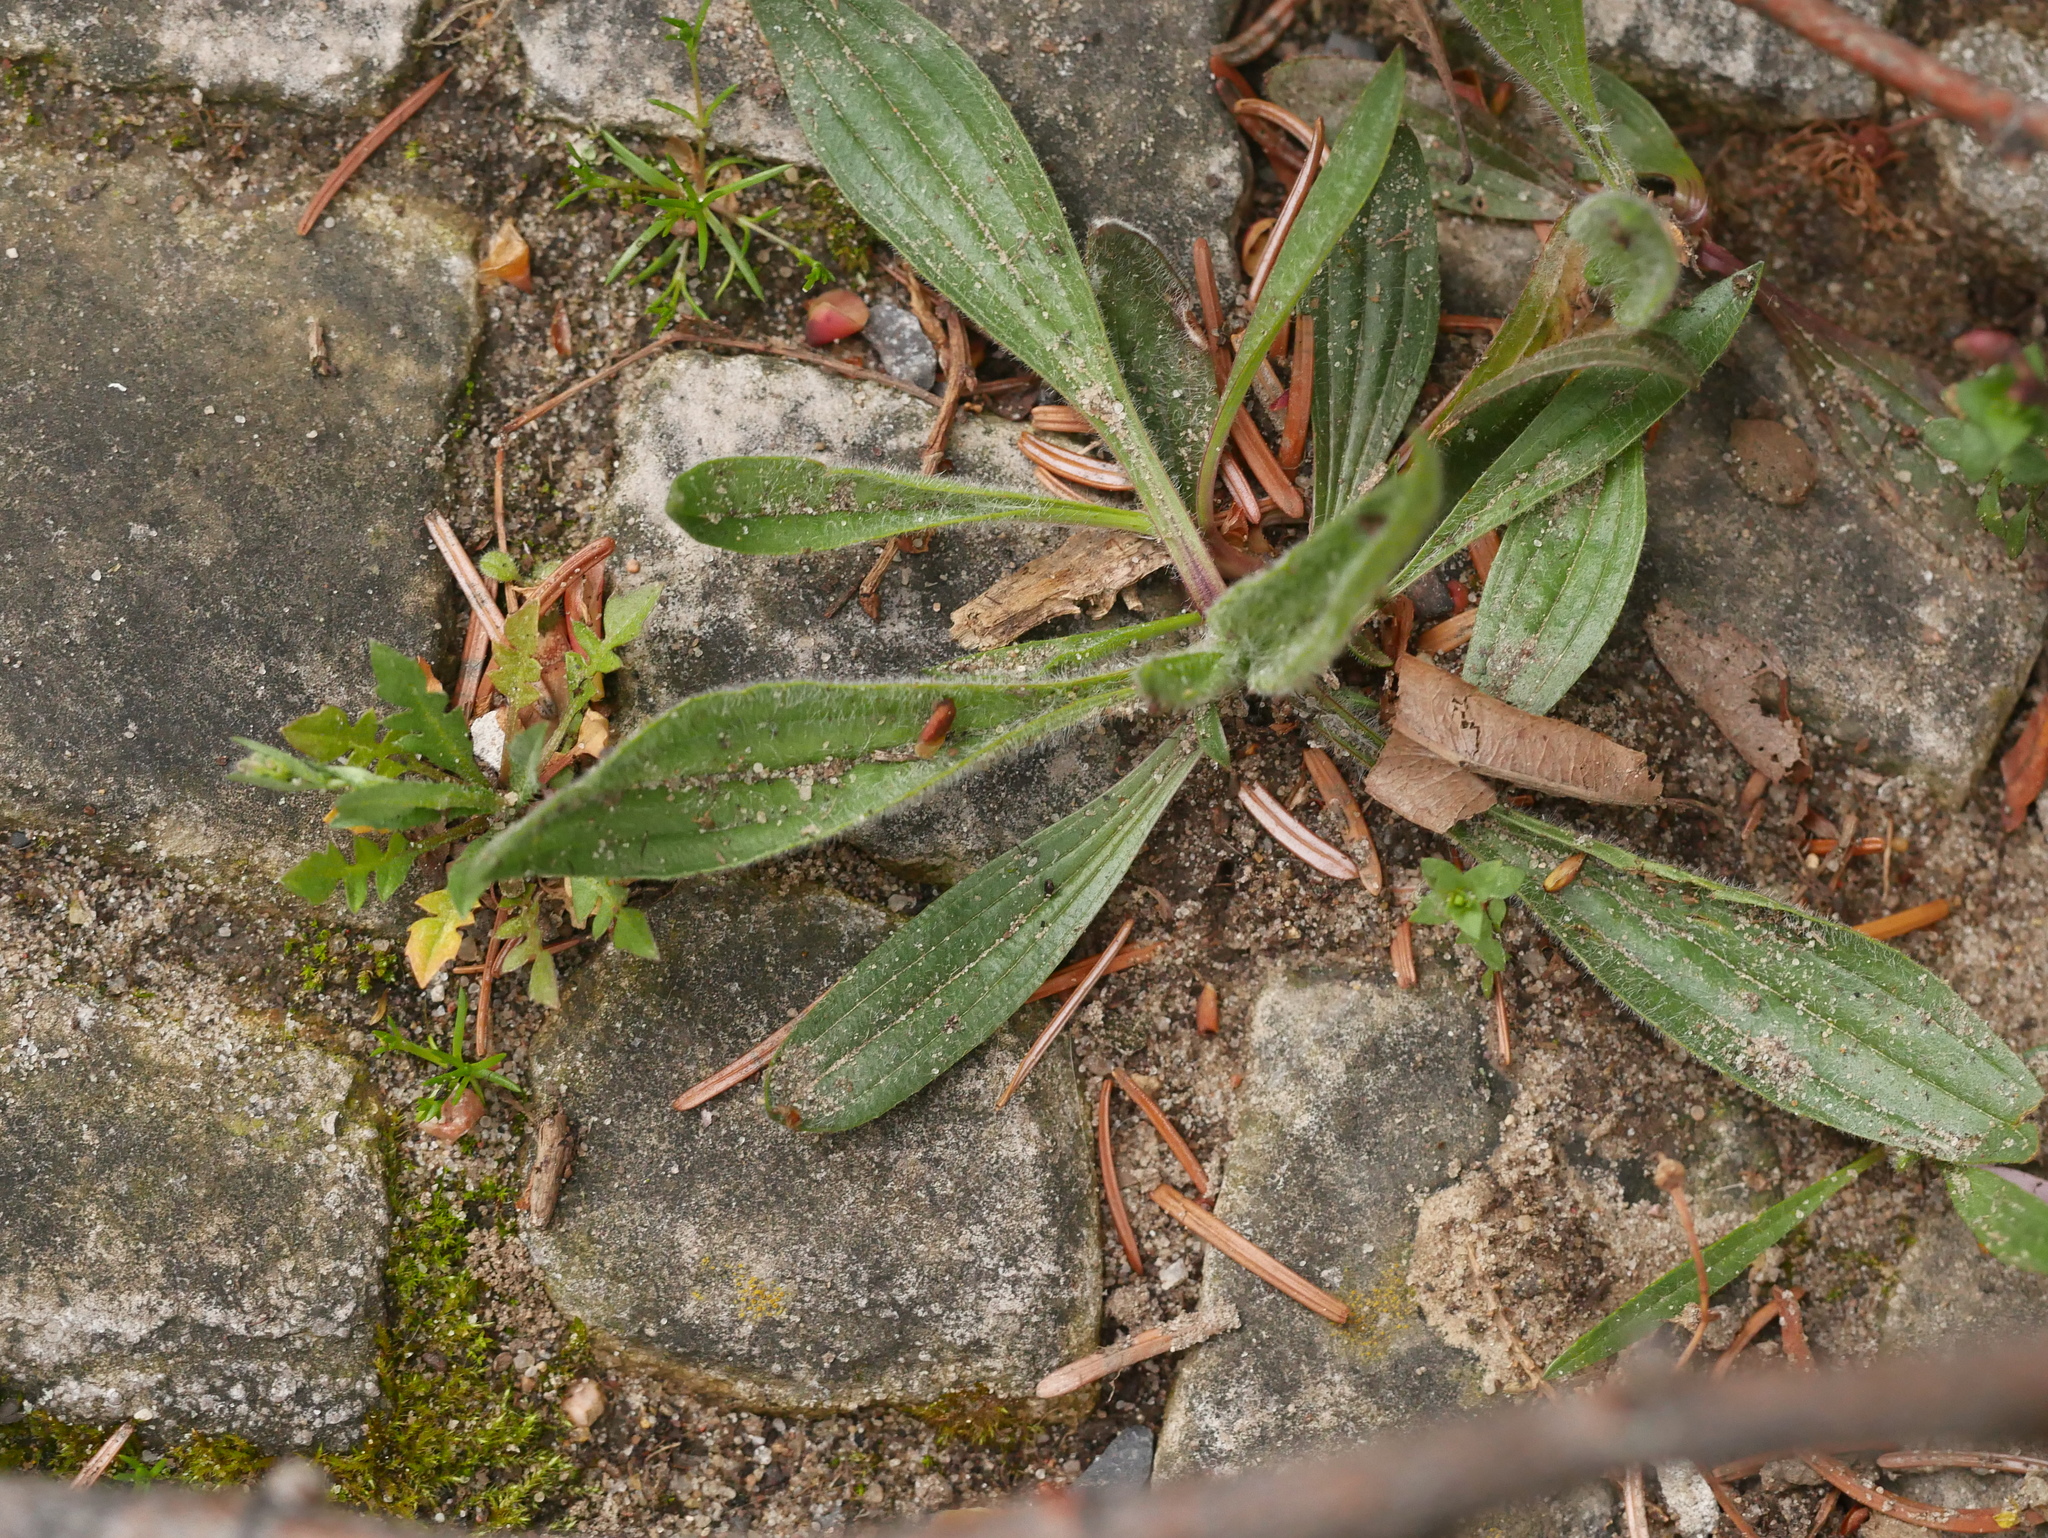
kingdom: Plantae
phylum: Tracheophyta
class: Magnoliopsida
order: Lamiales
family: Plantaginaceae
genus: Plantago
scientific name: Plantago lanceolata
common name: Ribwort plantain
